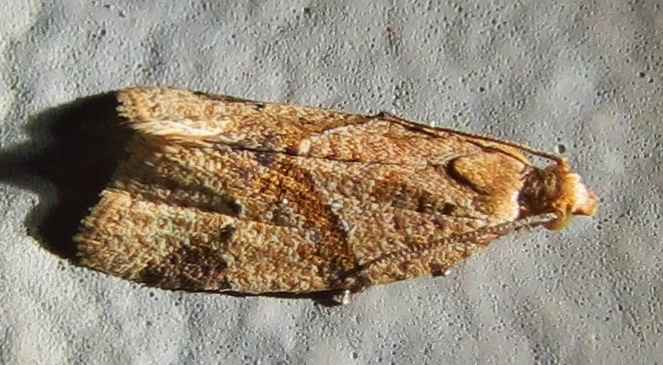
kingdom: Animalia
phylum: Arthropoda
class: Insecta
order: Lepidoptera
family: Tortricidae
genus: Clepsis
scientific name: Clepsis peritana
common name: Garden tortrix
